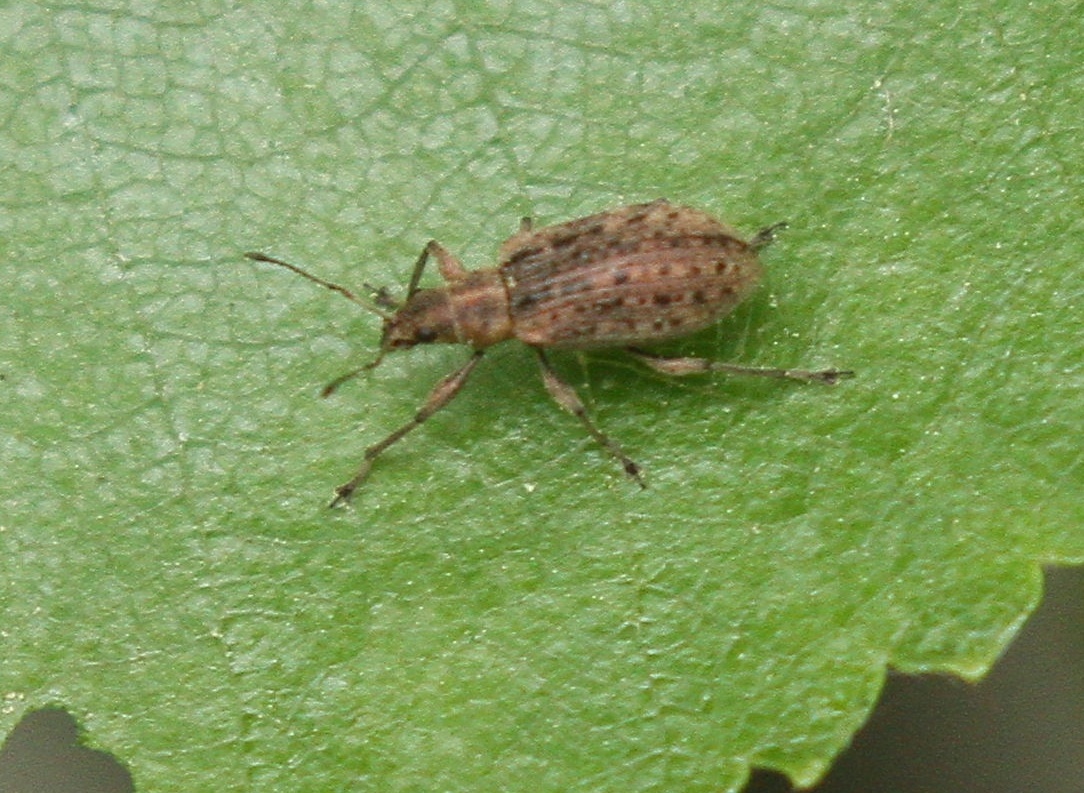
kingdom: Animalia
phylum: Arthropoda
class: Insecta
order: Coleoptera
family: Curculionidae
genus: Polydrusus
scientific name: Polydrusus pilosus
